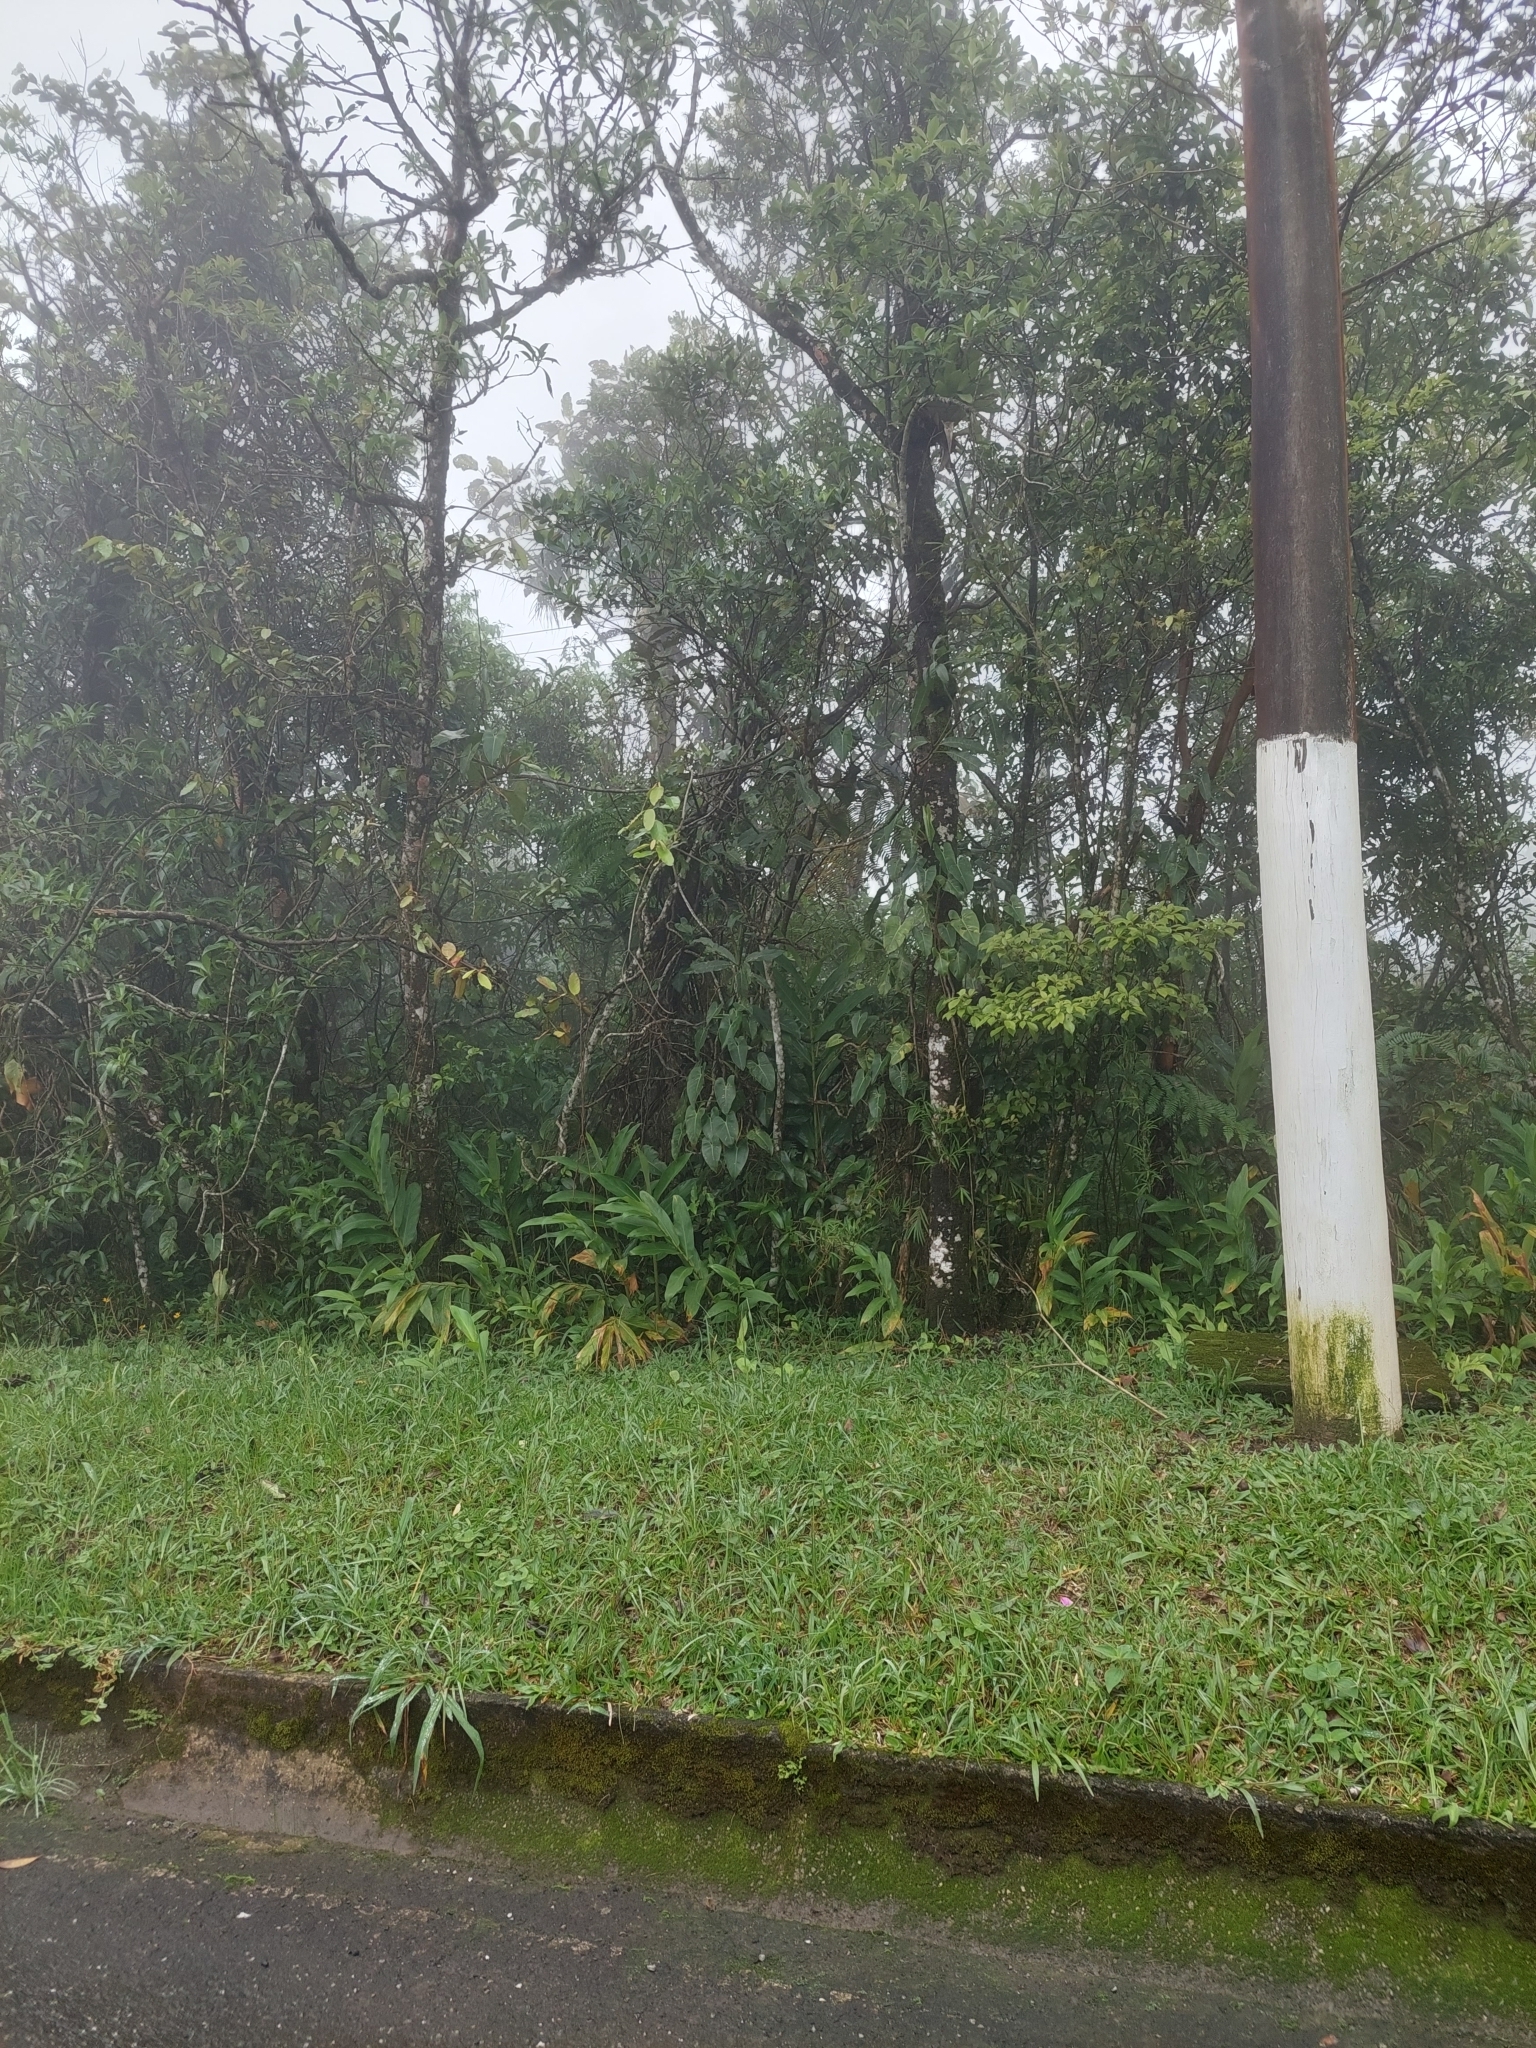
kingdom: Plantae
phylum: Tracheophyta
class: Liliopsida
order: Zingiberales
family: Zingiberaceae
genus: Hedychium
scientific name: Hedychium coronarium
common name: White garland-lily
